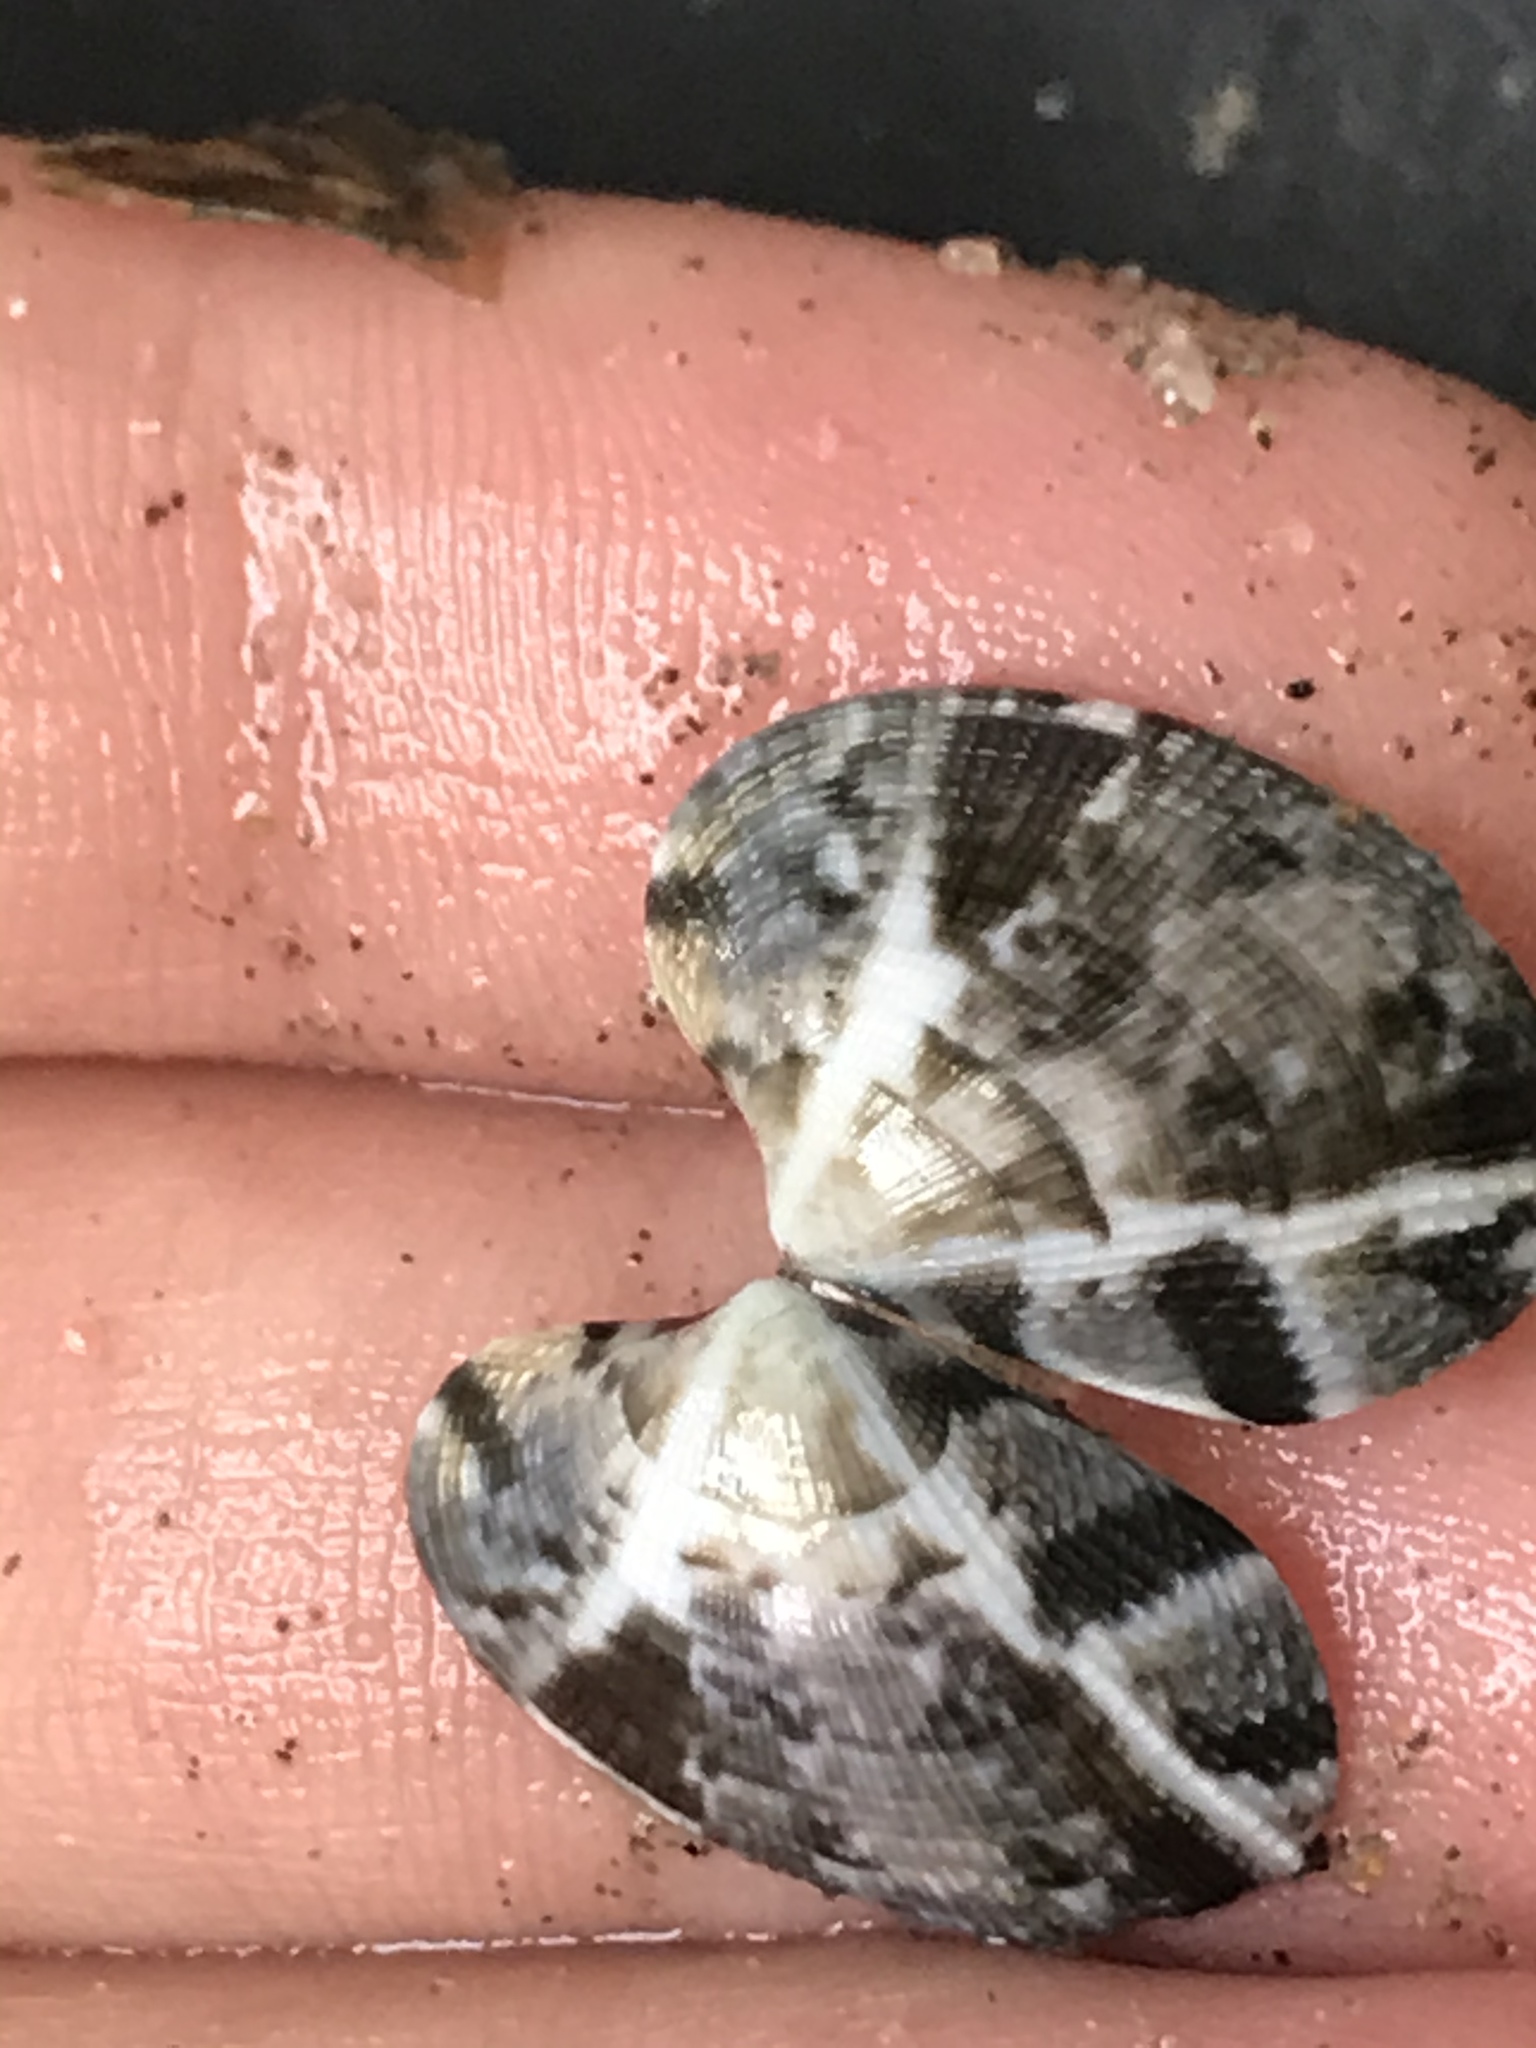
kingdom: Animalia
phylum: Mollusca
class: Bivalvia
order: Venerida
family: Veneridae
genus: Ruditapes
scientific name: Ruditapes philippinarum
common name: Manila clam
